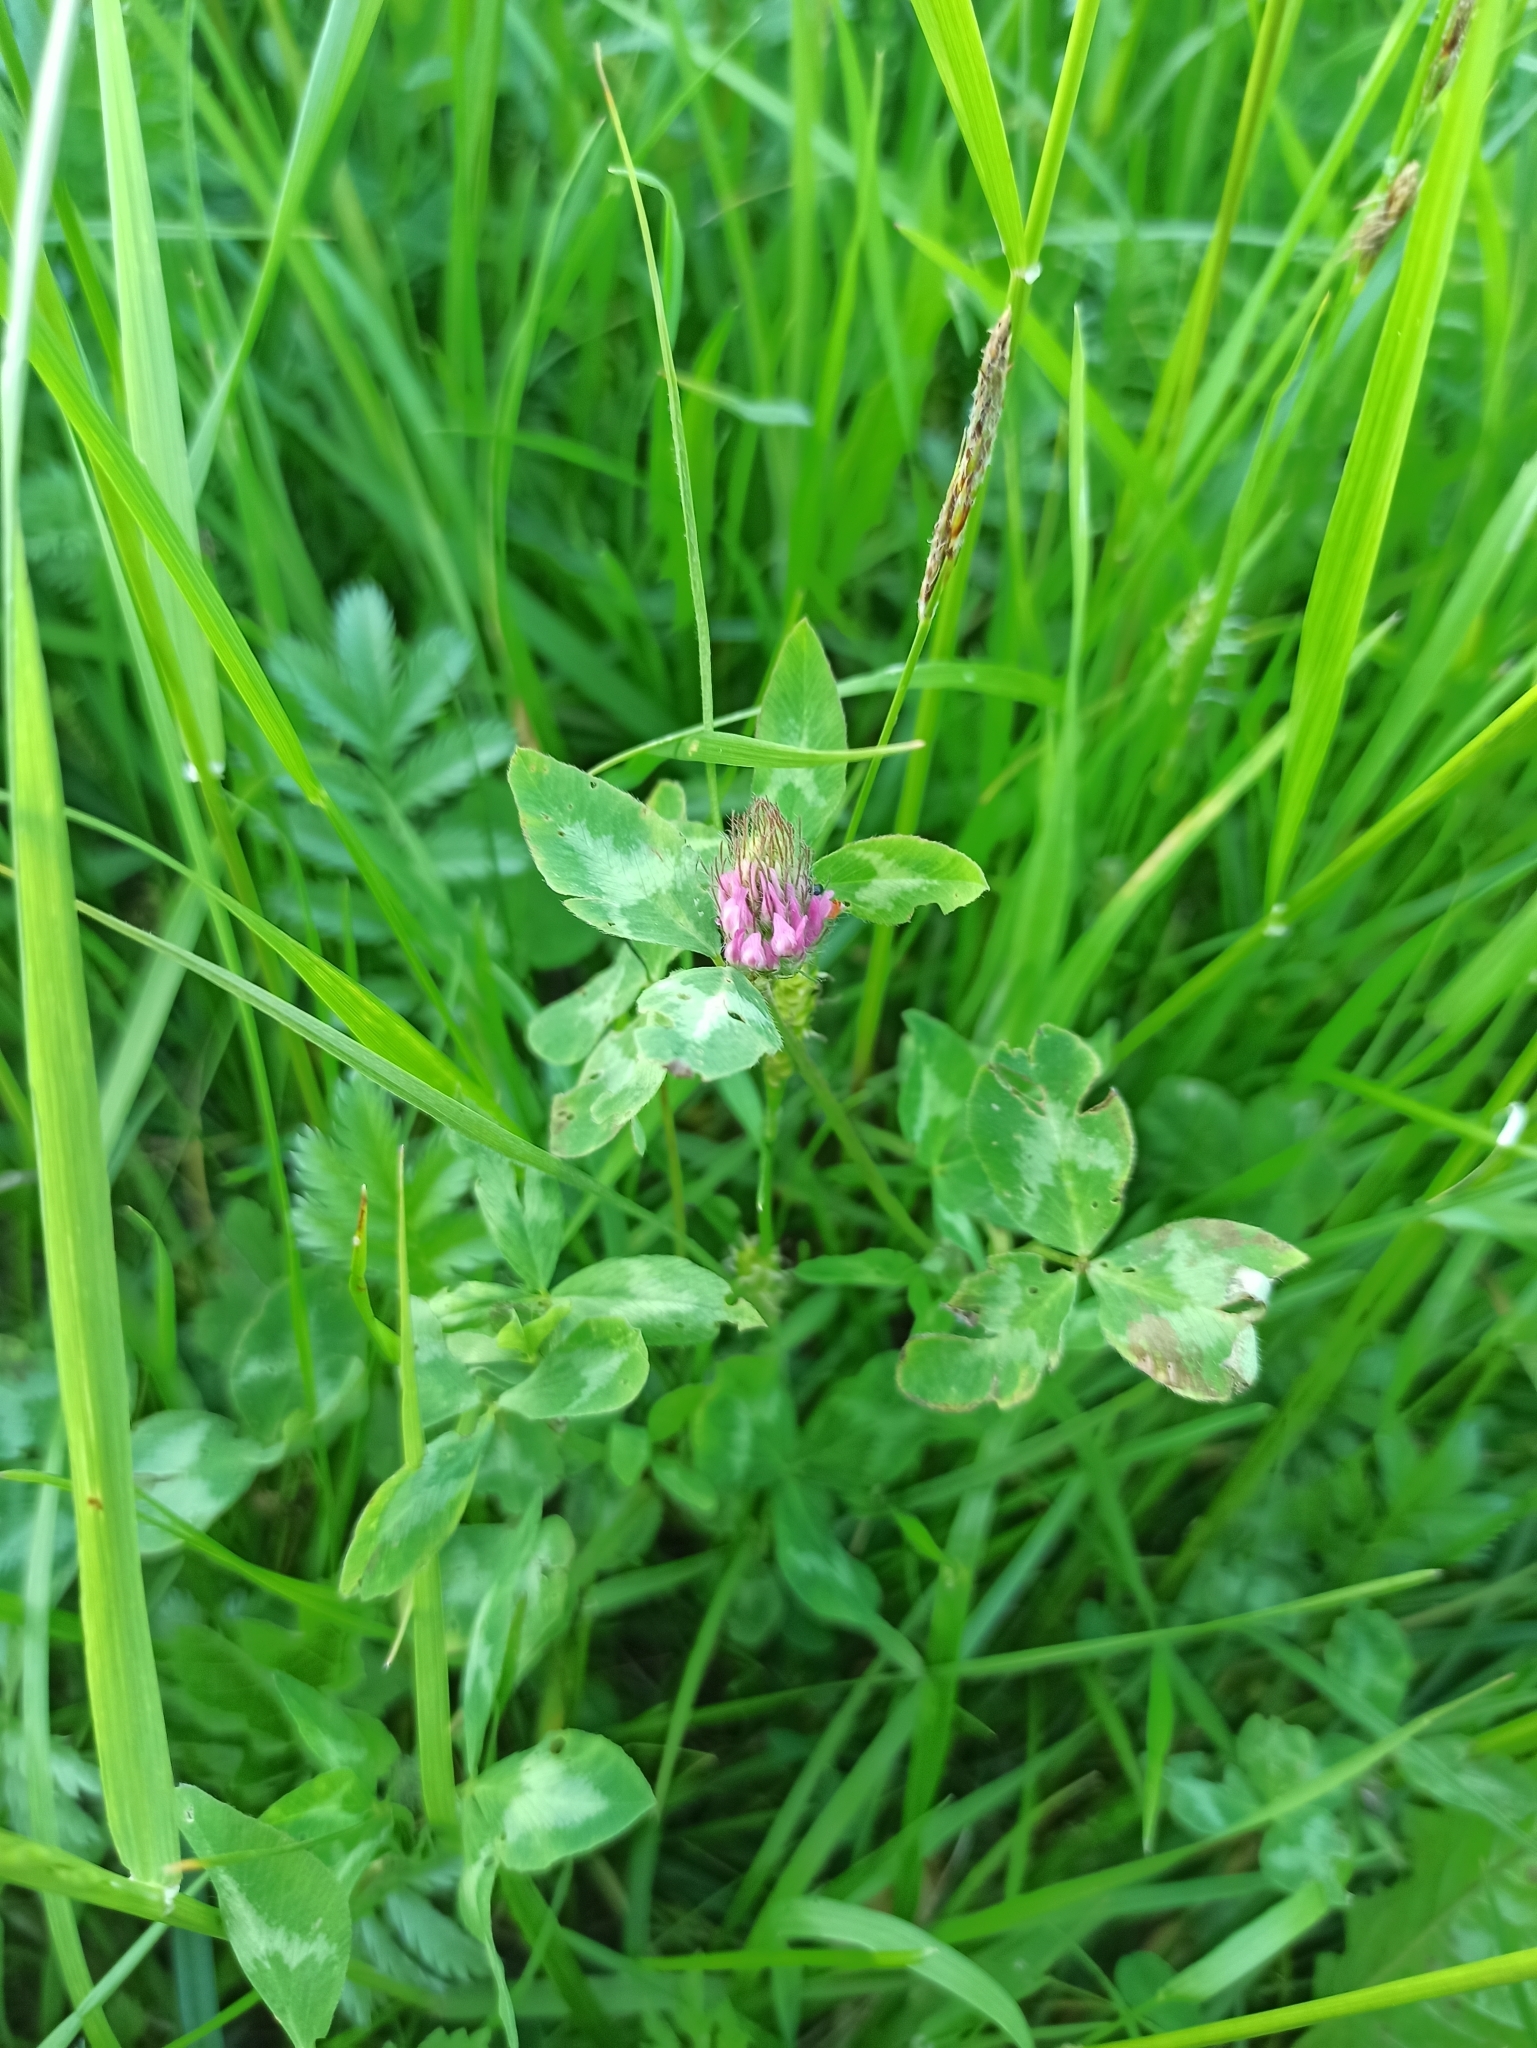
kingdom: Plantae
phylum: Tracheophyta
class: Magnoliopsida
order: Fabales
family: Fabaceae
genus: Trifolium
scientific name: Trifolium pratense
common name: Red clover
